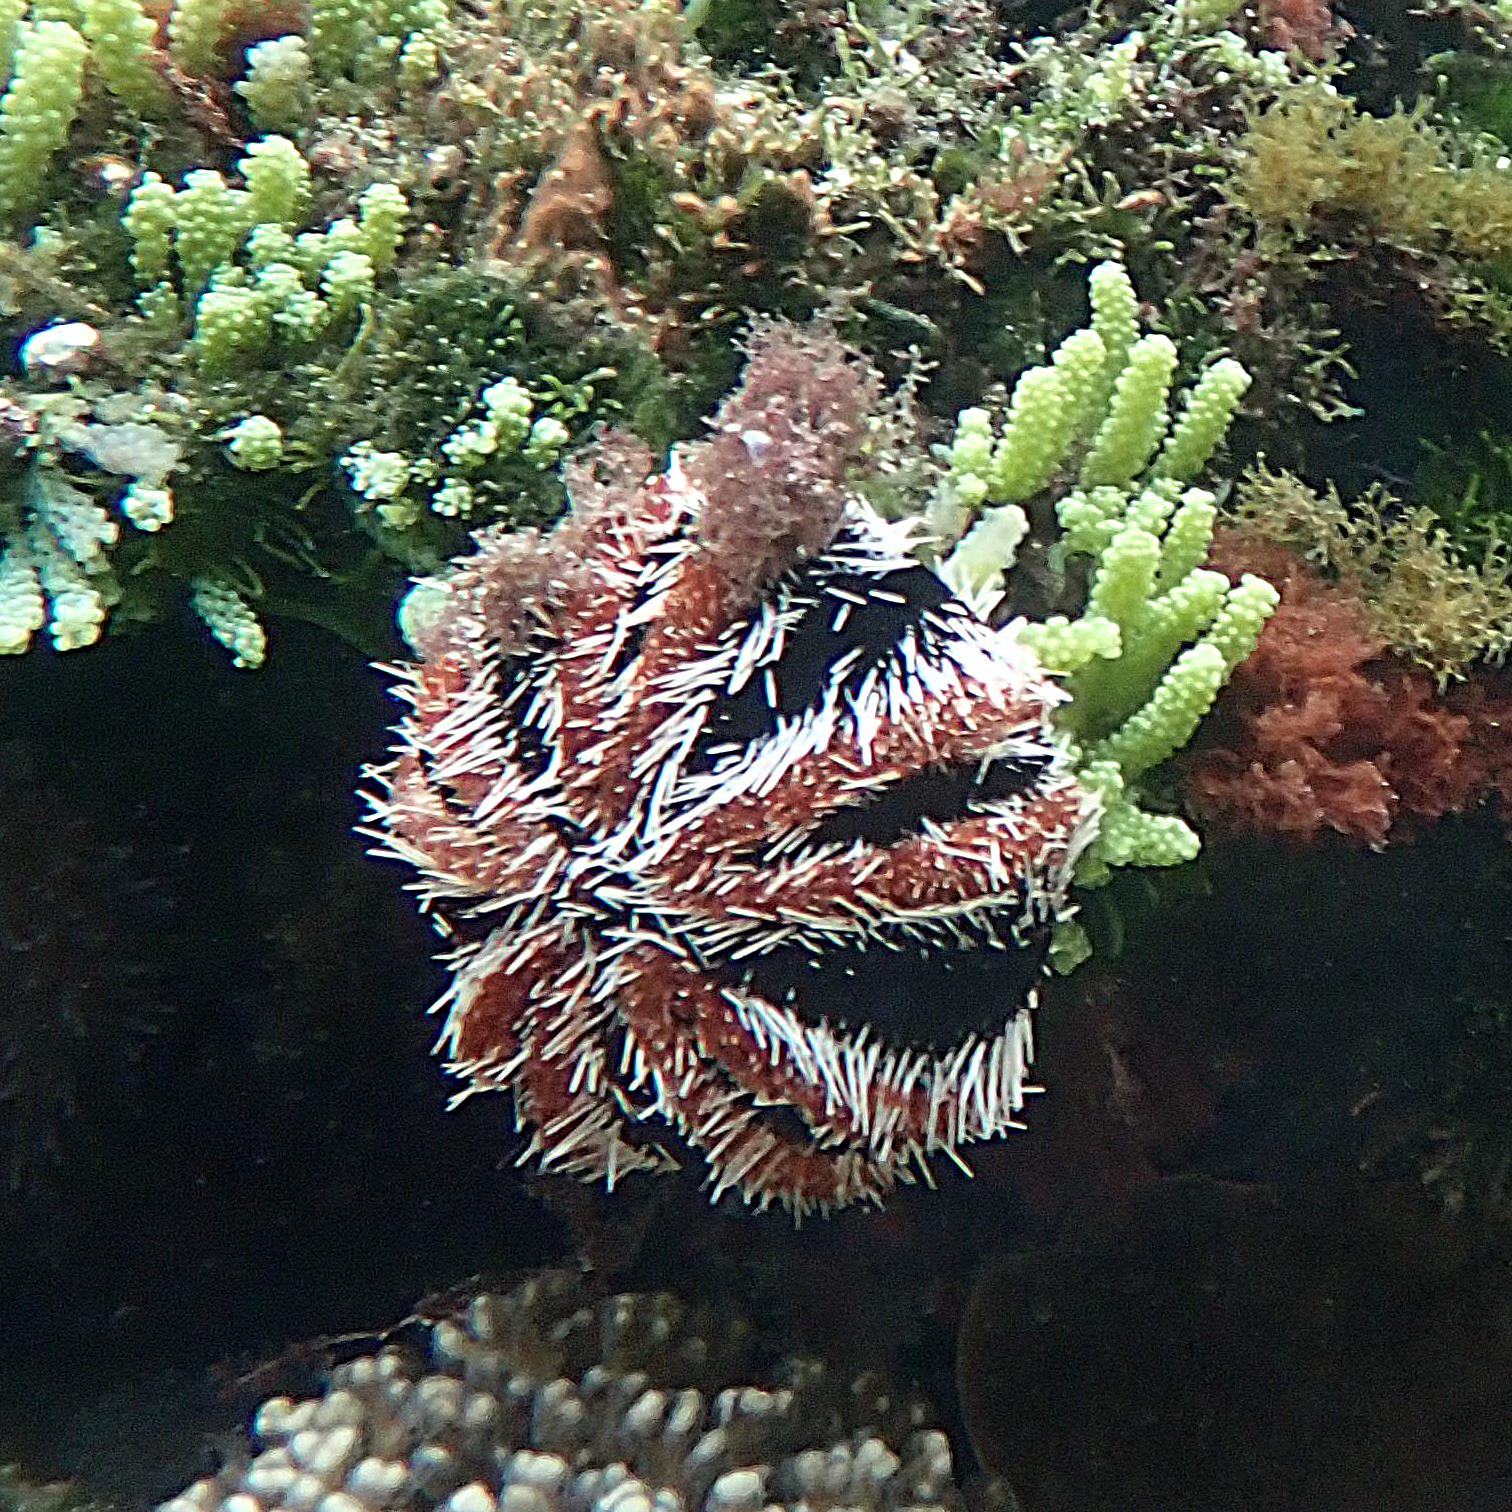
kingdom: Animalia
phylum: Echinodermata
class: Echinoidea
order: Camarodonta
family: Toxopneustidae
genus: Tripneustes
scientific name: Tripneustes gratilla
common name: Bischofsmützenseeigel
